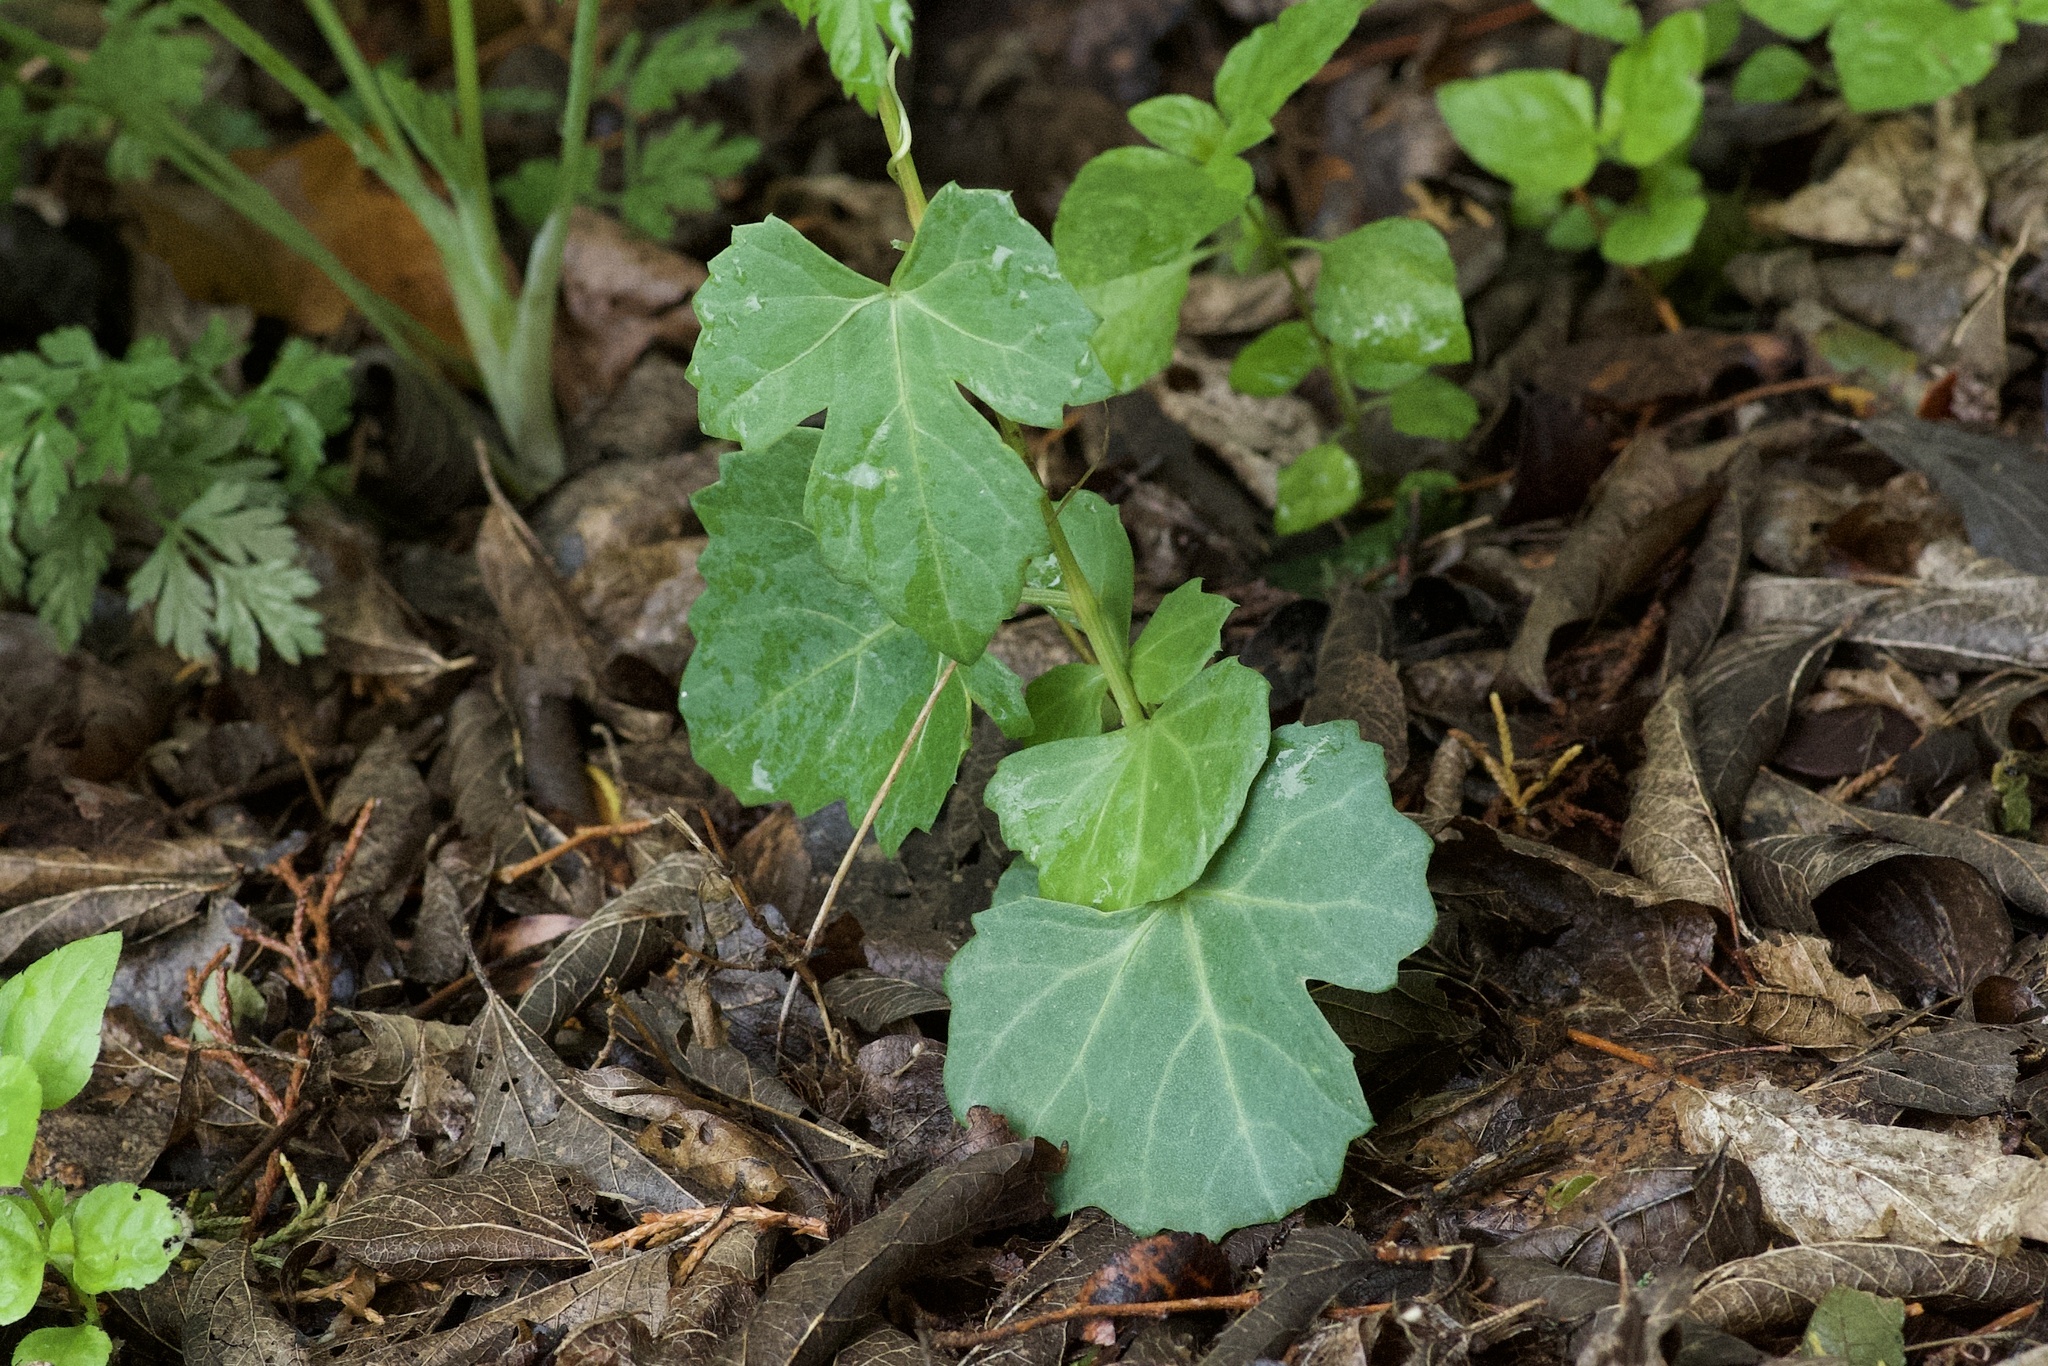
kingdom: Plantae
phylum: Tracheophyta
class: Magnoliopsida
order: Vitales
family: Vitaceae
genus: Cissus
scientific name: Cissus trifoliata
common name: Vine-sorrel
